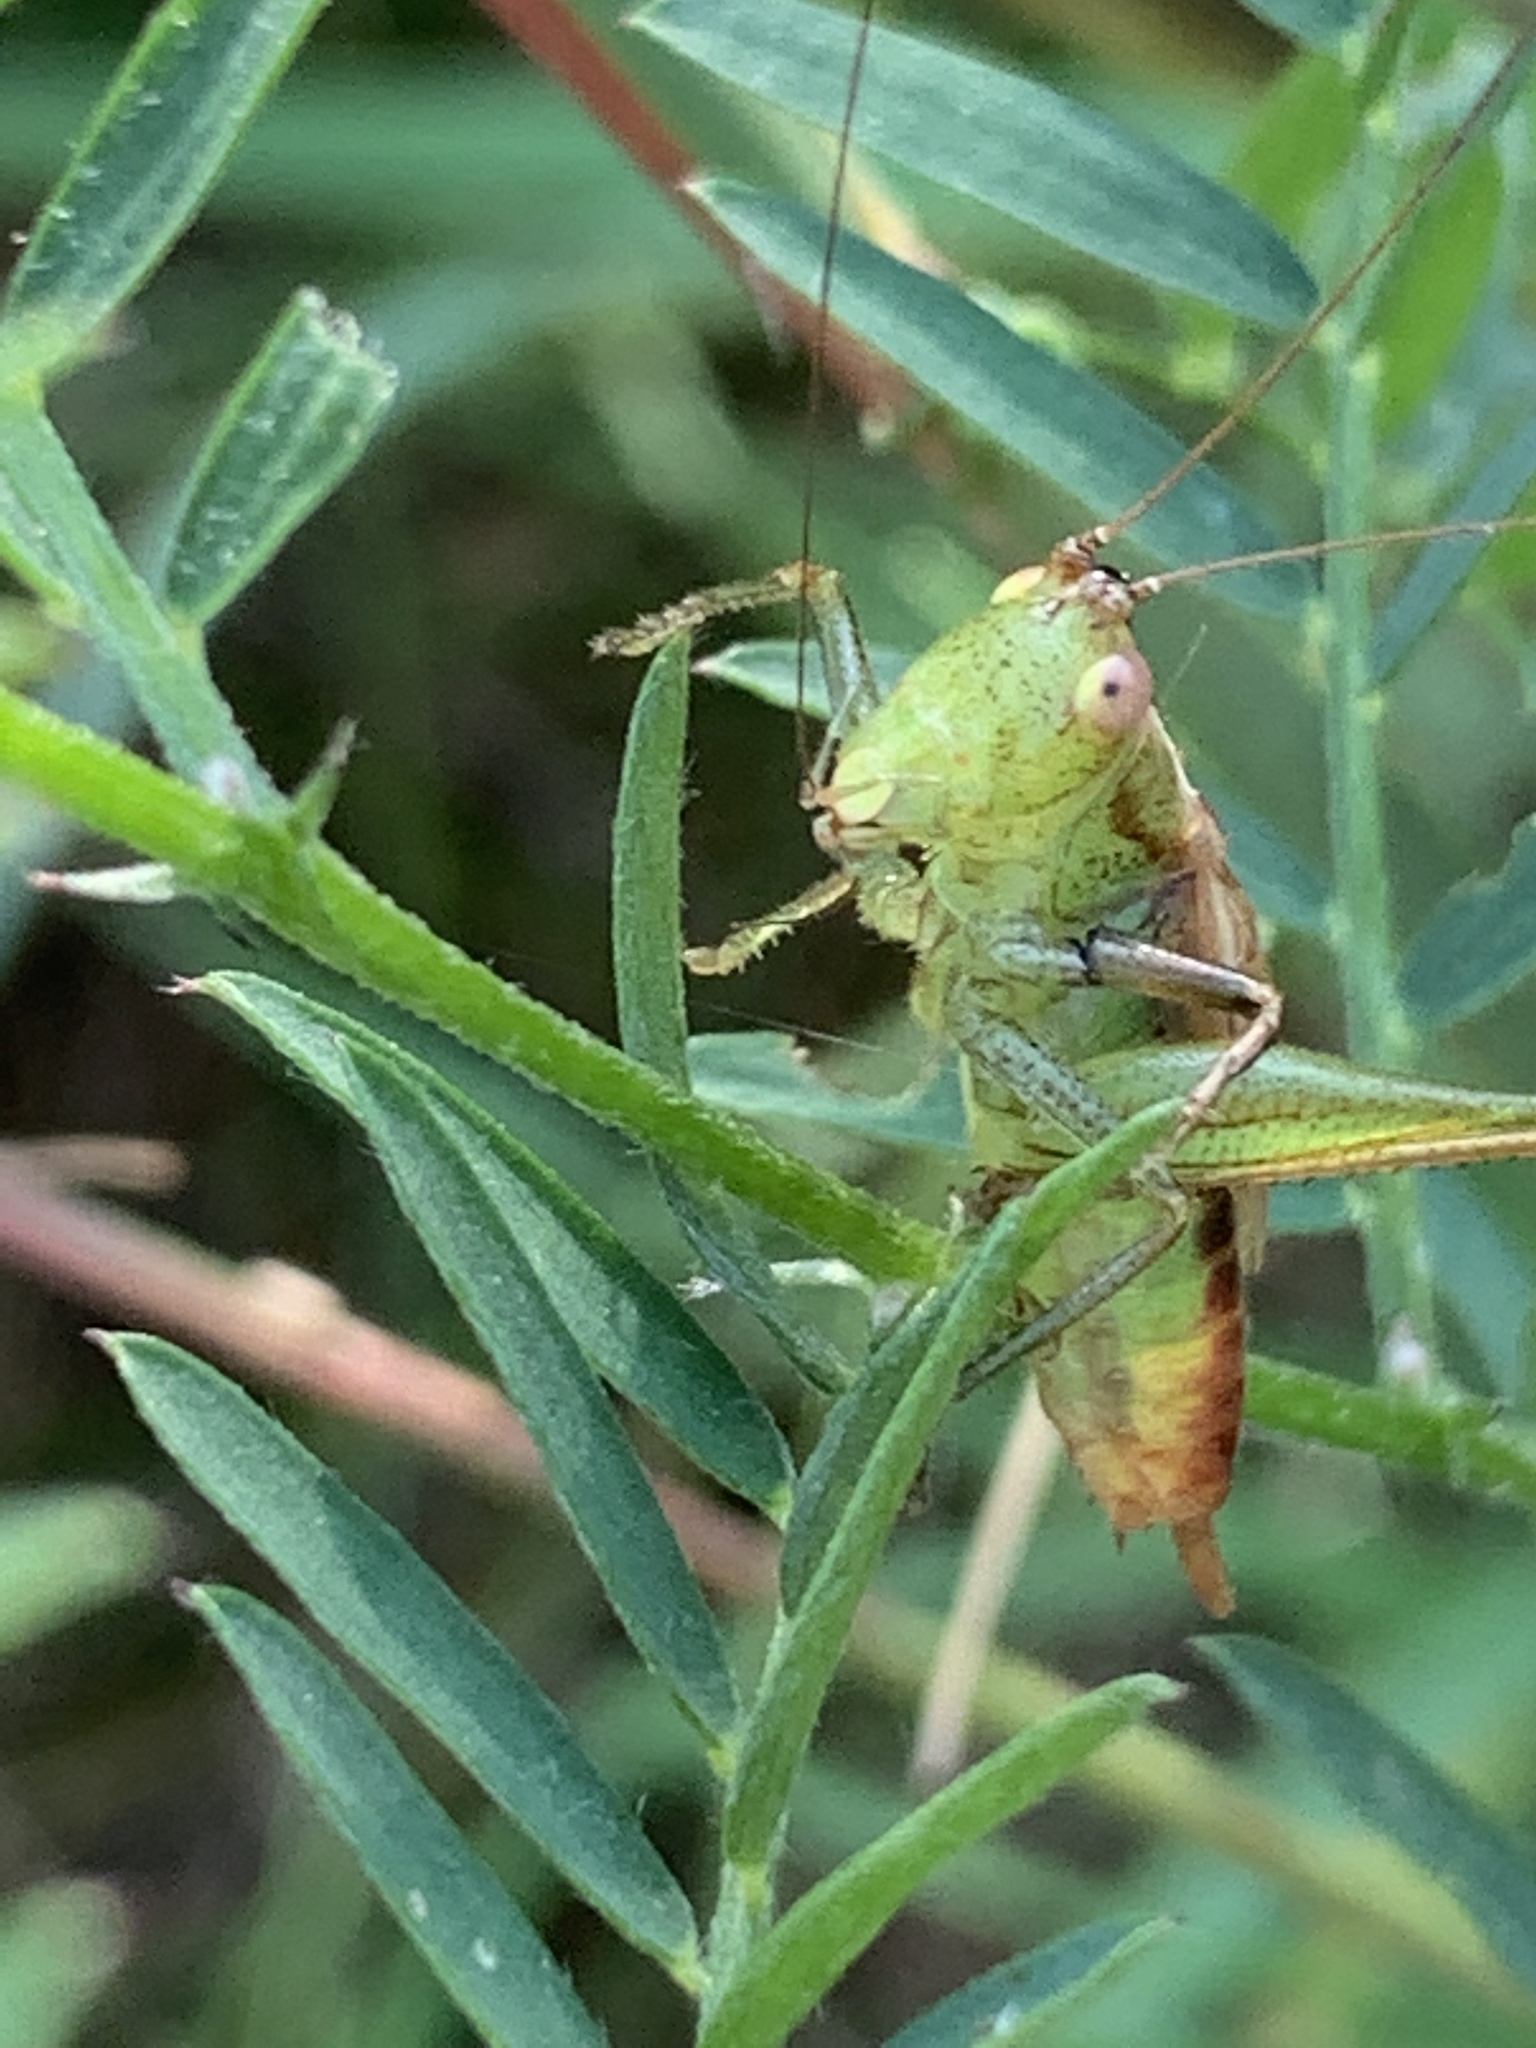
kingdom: Animalia
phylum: Arthropoda
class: Insecta
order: Orthoptera
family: Tettigoniidae
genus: Conocephalus
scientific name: Conocephalus brevipennis
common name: Short-winged meadow katydid
